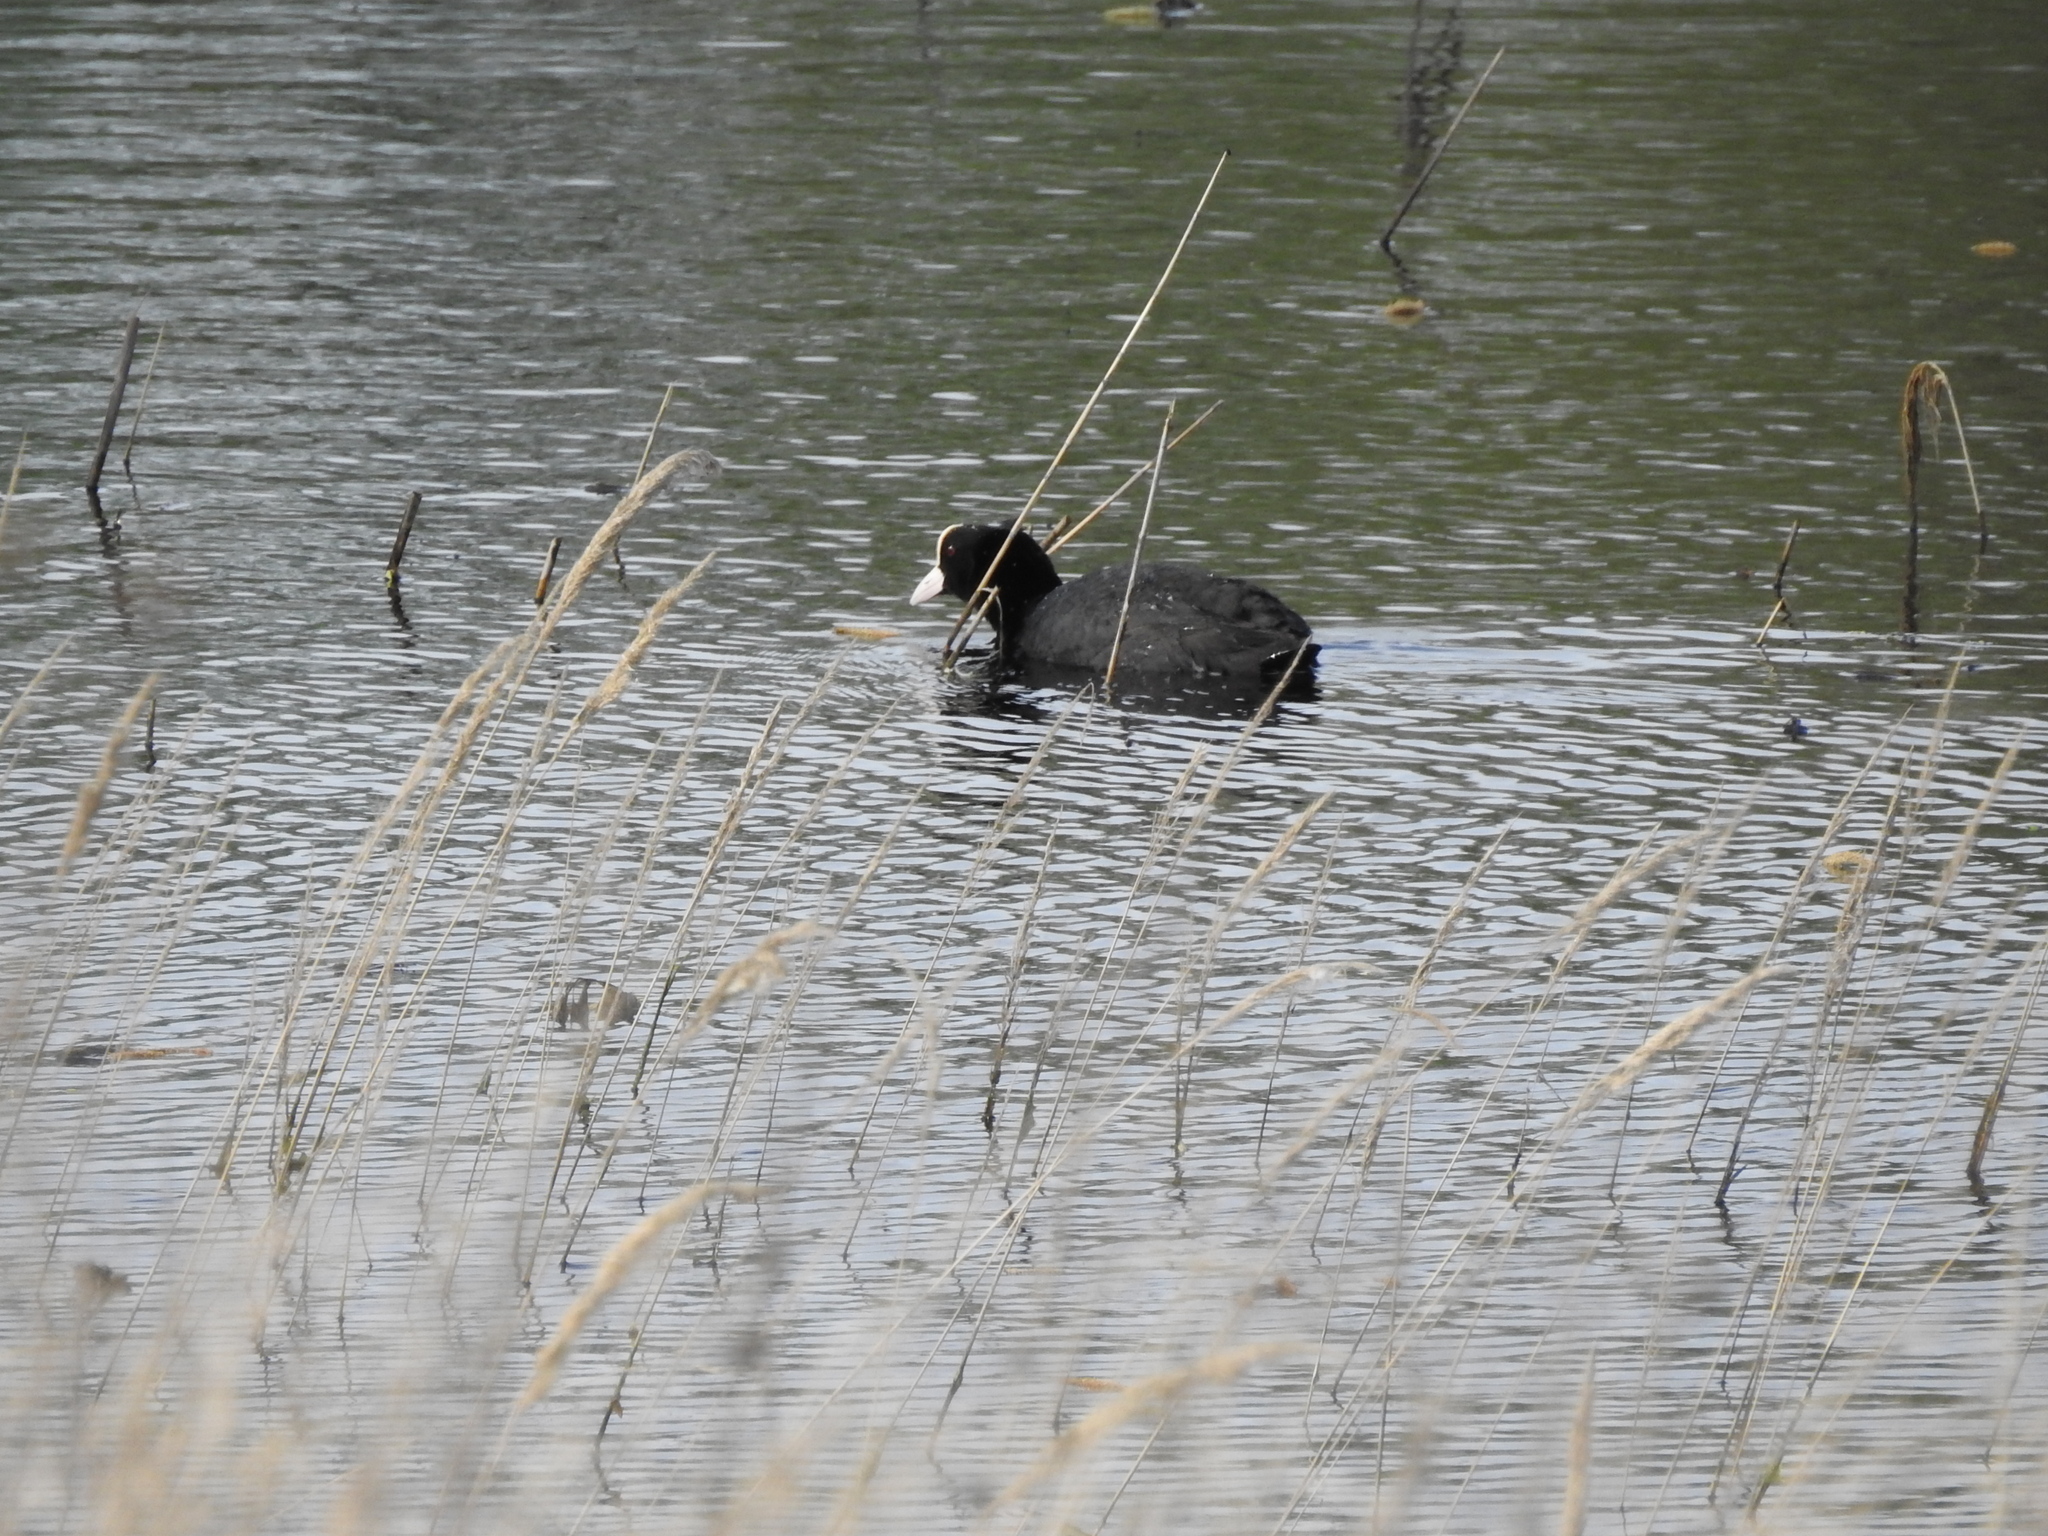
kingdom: Animalia
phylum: Chordata
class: Aves
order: Gruiformes
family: Rallidae
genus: Fulica
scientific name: Fulica atra
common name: Eurasian coot
